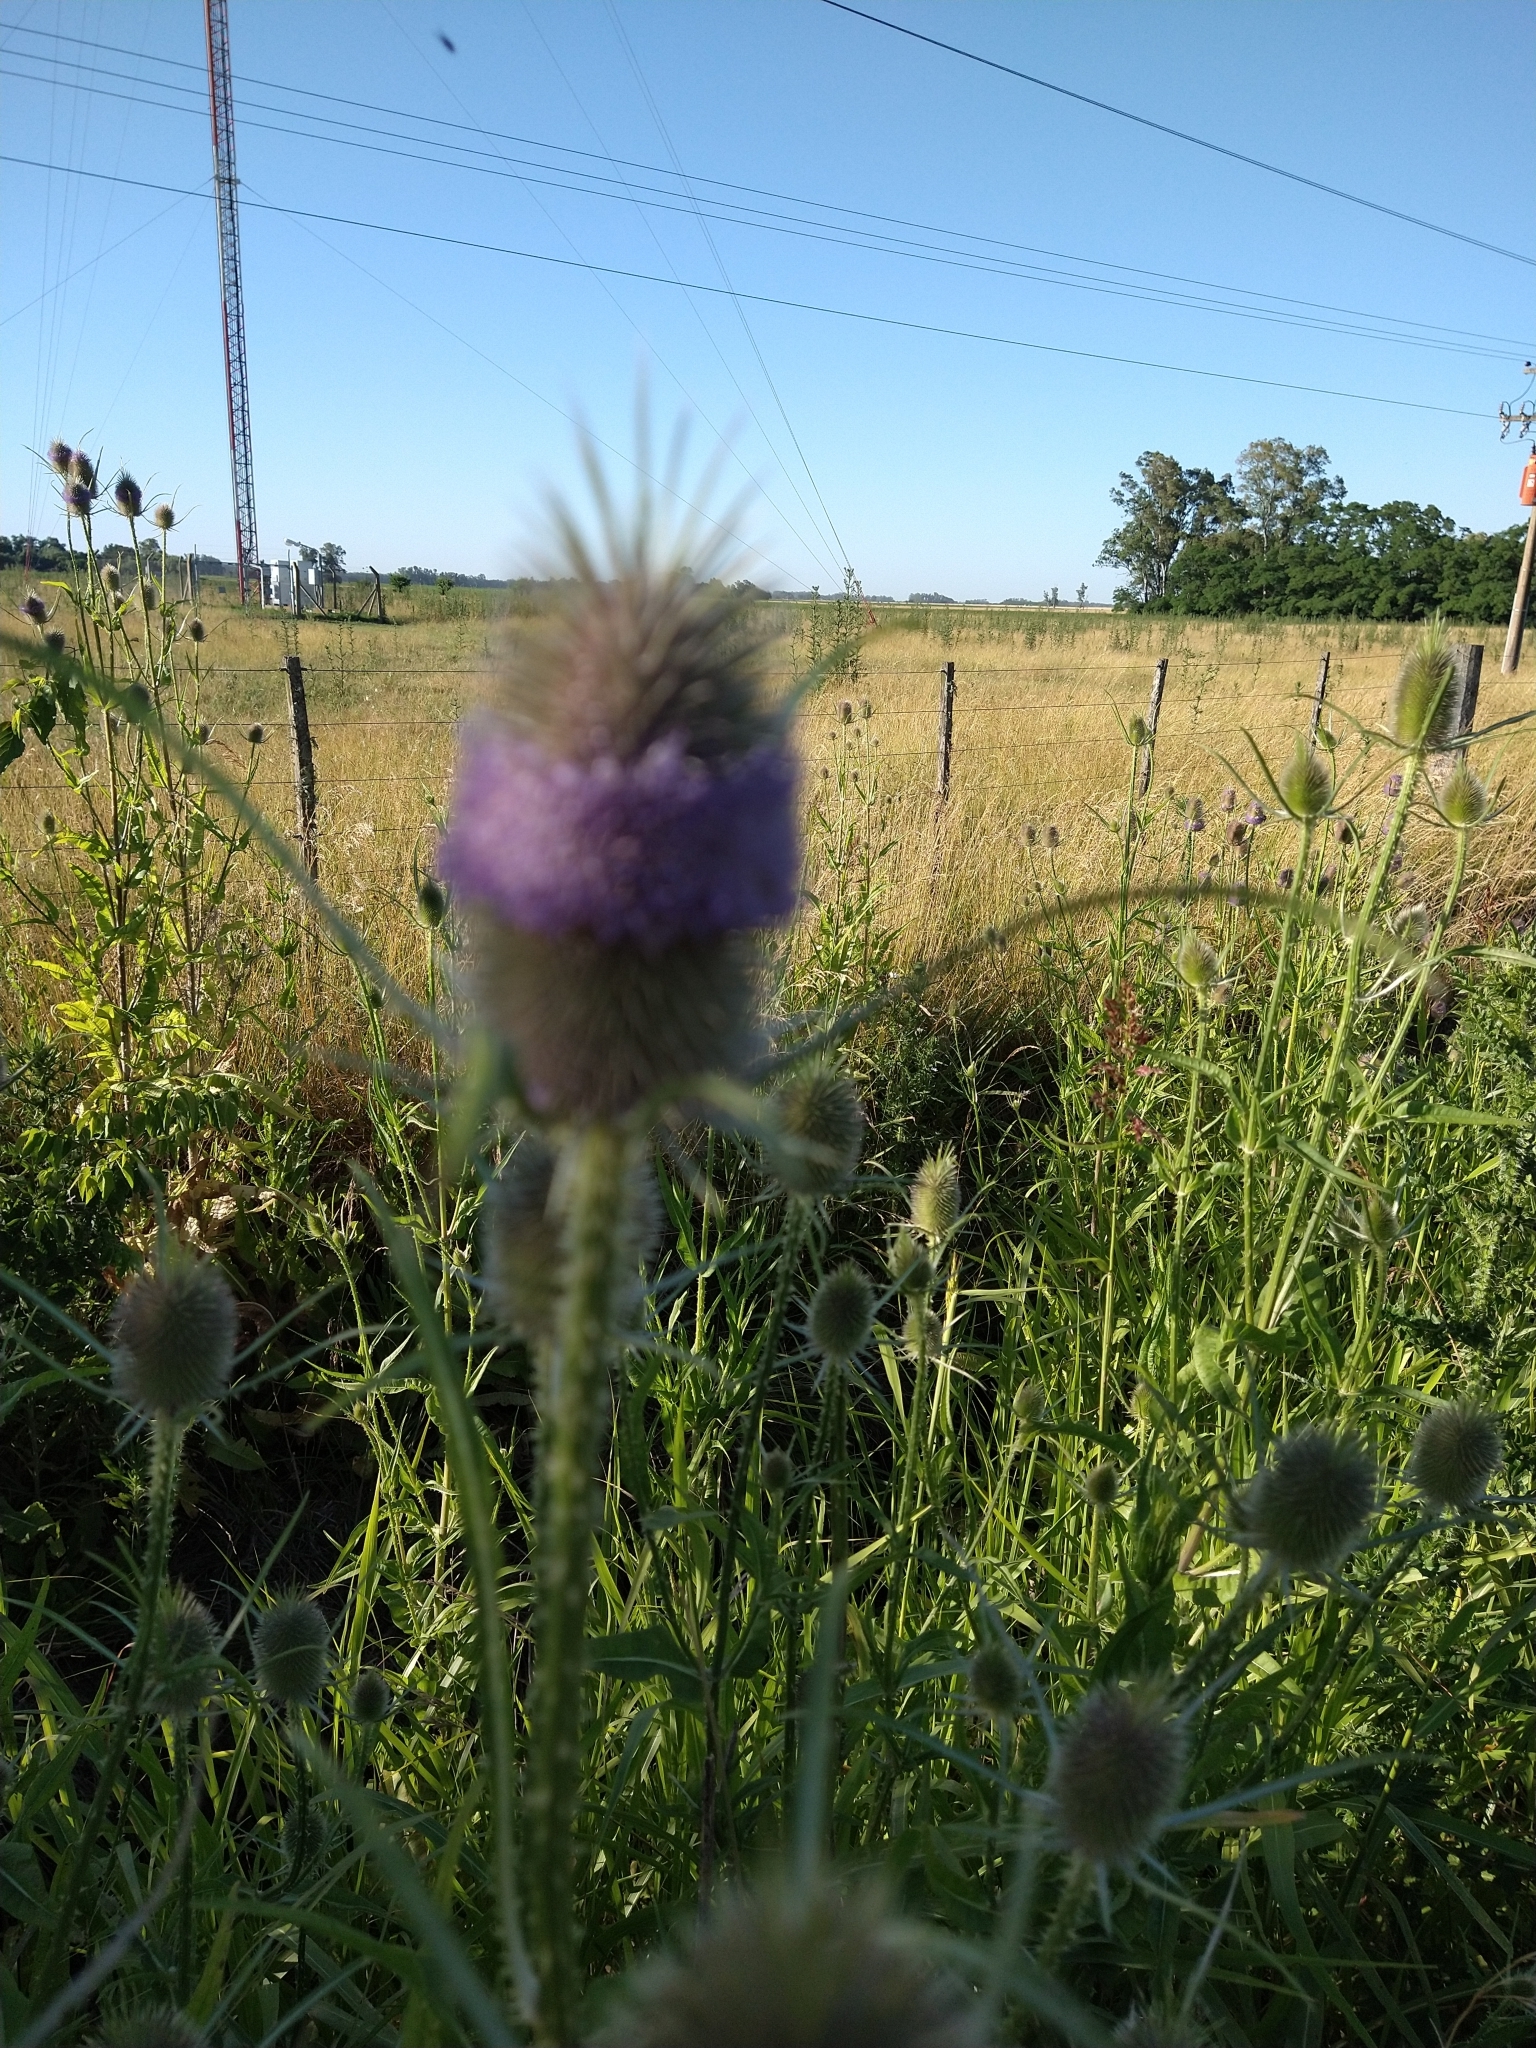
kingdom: Plantae
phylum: Tracheophyta
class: Magnoliopsida
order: Dipsacales
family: Caprifoliaceae
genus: Dipsacus
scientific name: Dipsacus fullonum
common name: Teasel
